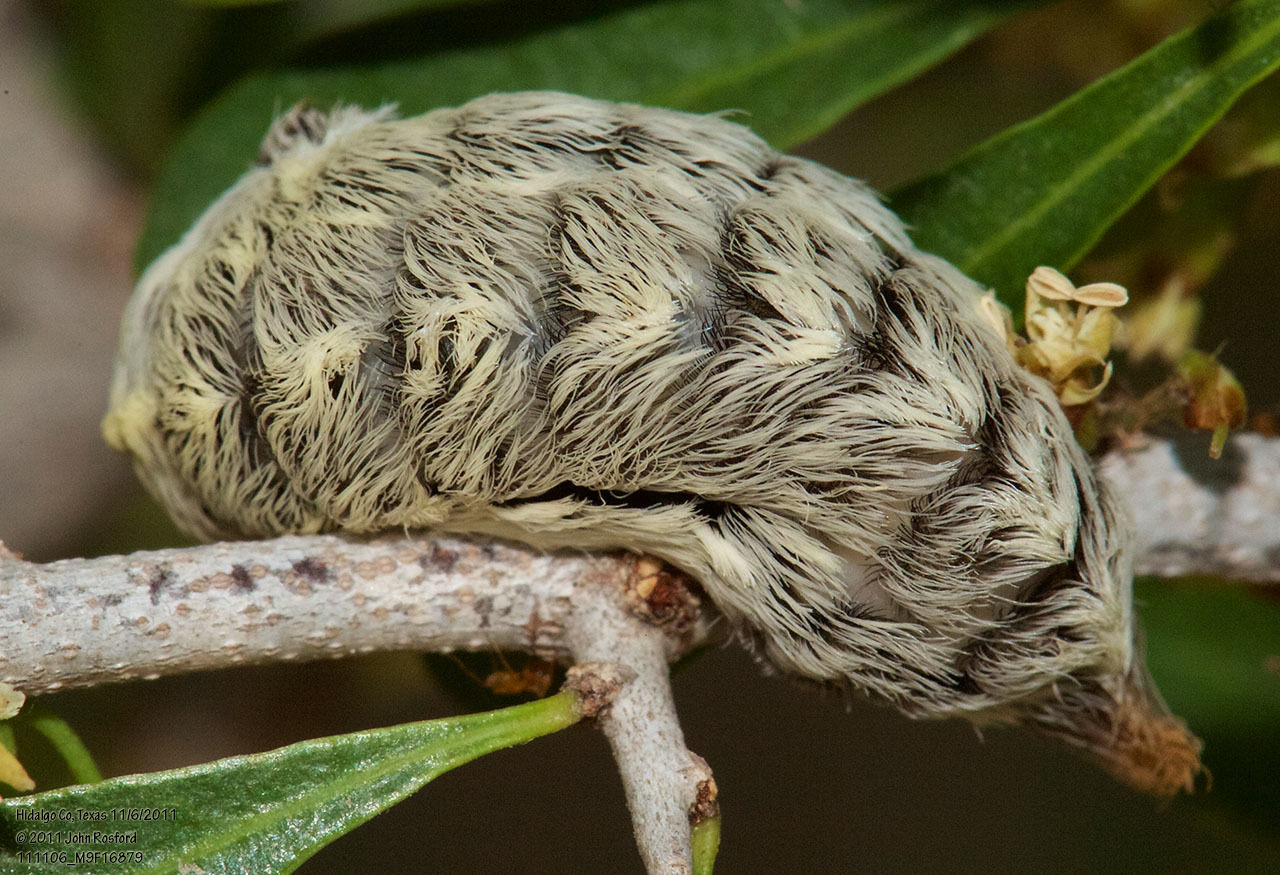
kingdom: Animalia
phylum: Arthropoda
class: Insecta
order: Lepidoptera
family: Megalopygidae
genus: Megalopyge
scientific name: Megalopyge opercularis
